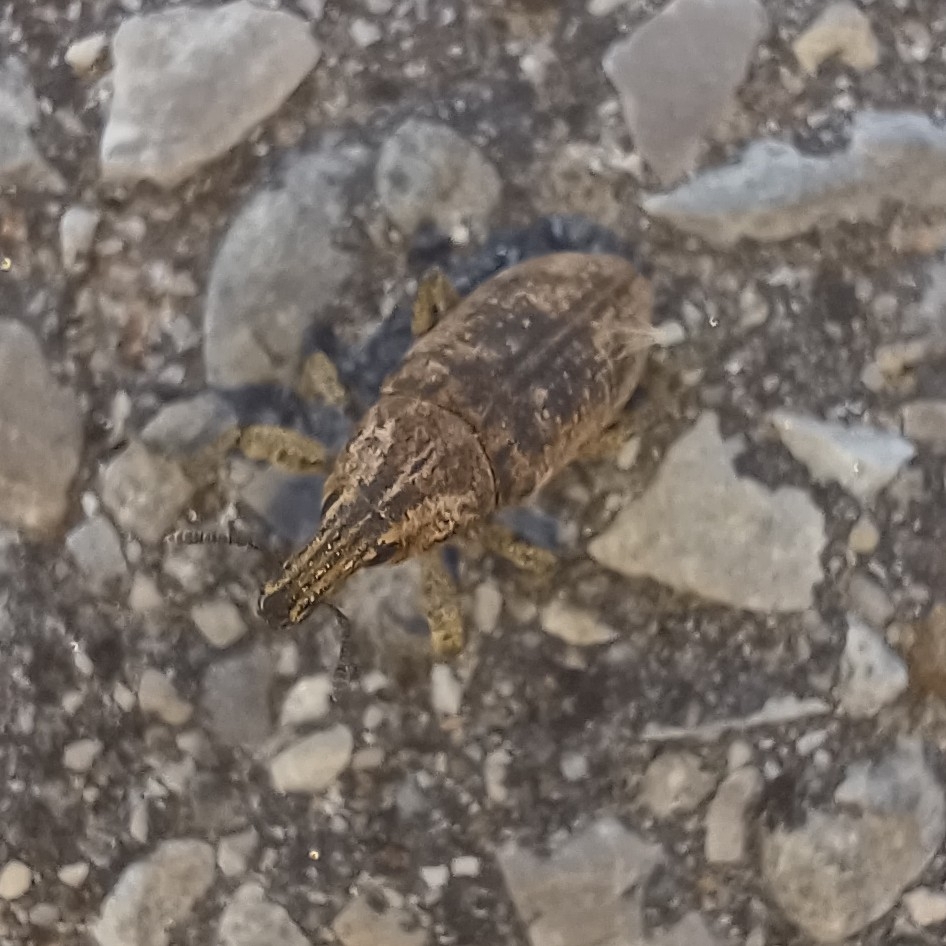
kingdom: Animalia
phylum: Arthropoda
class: Insecta
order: Coleoptera
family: Curculionidae
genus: Cleonis
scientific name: Cleonis pigra
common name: Large thistle weevil
